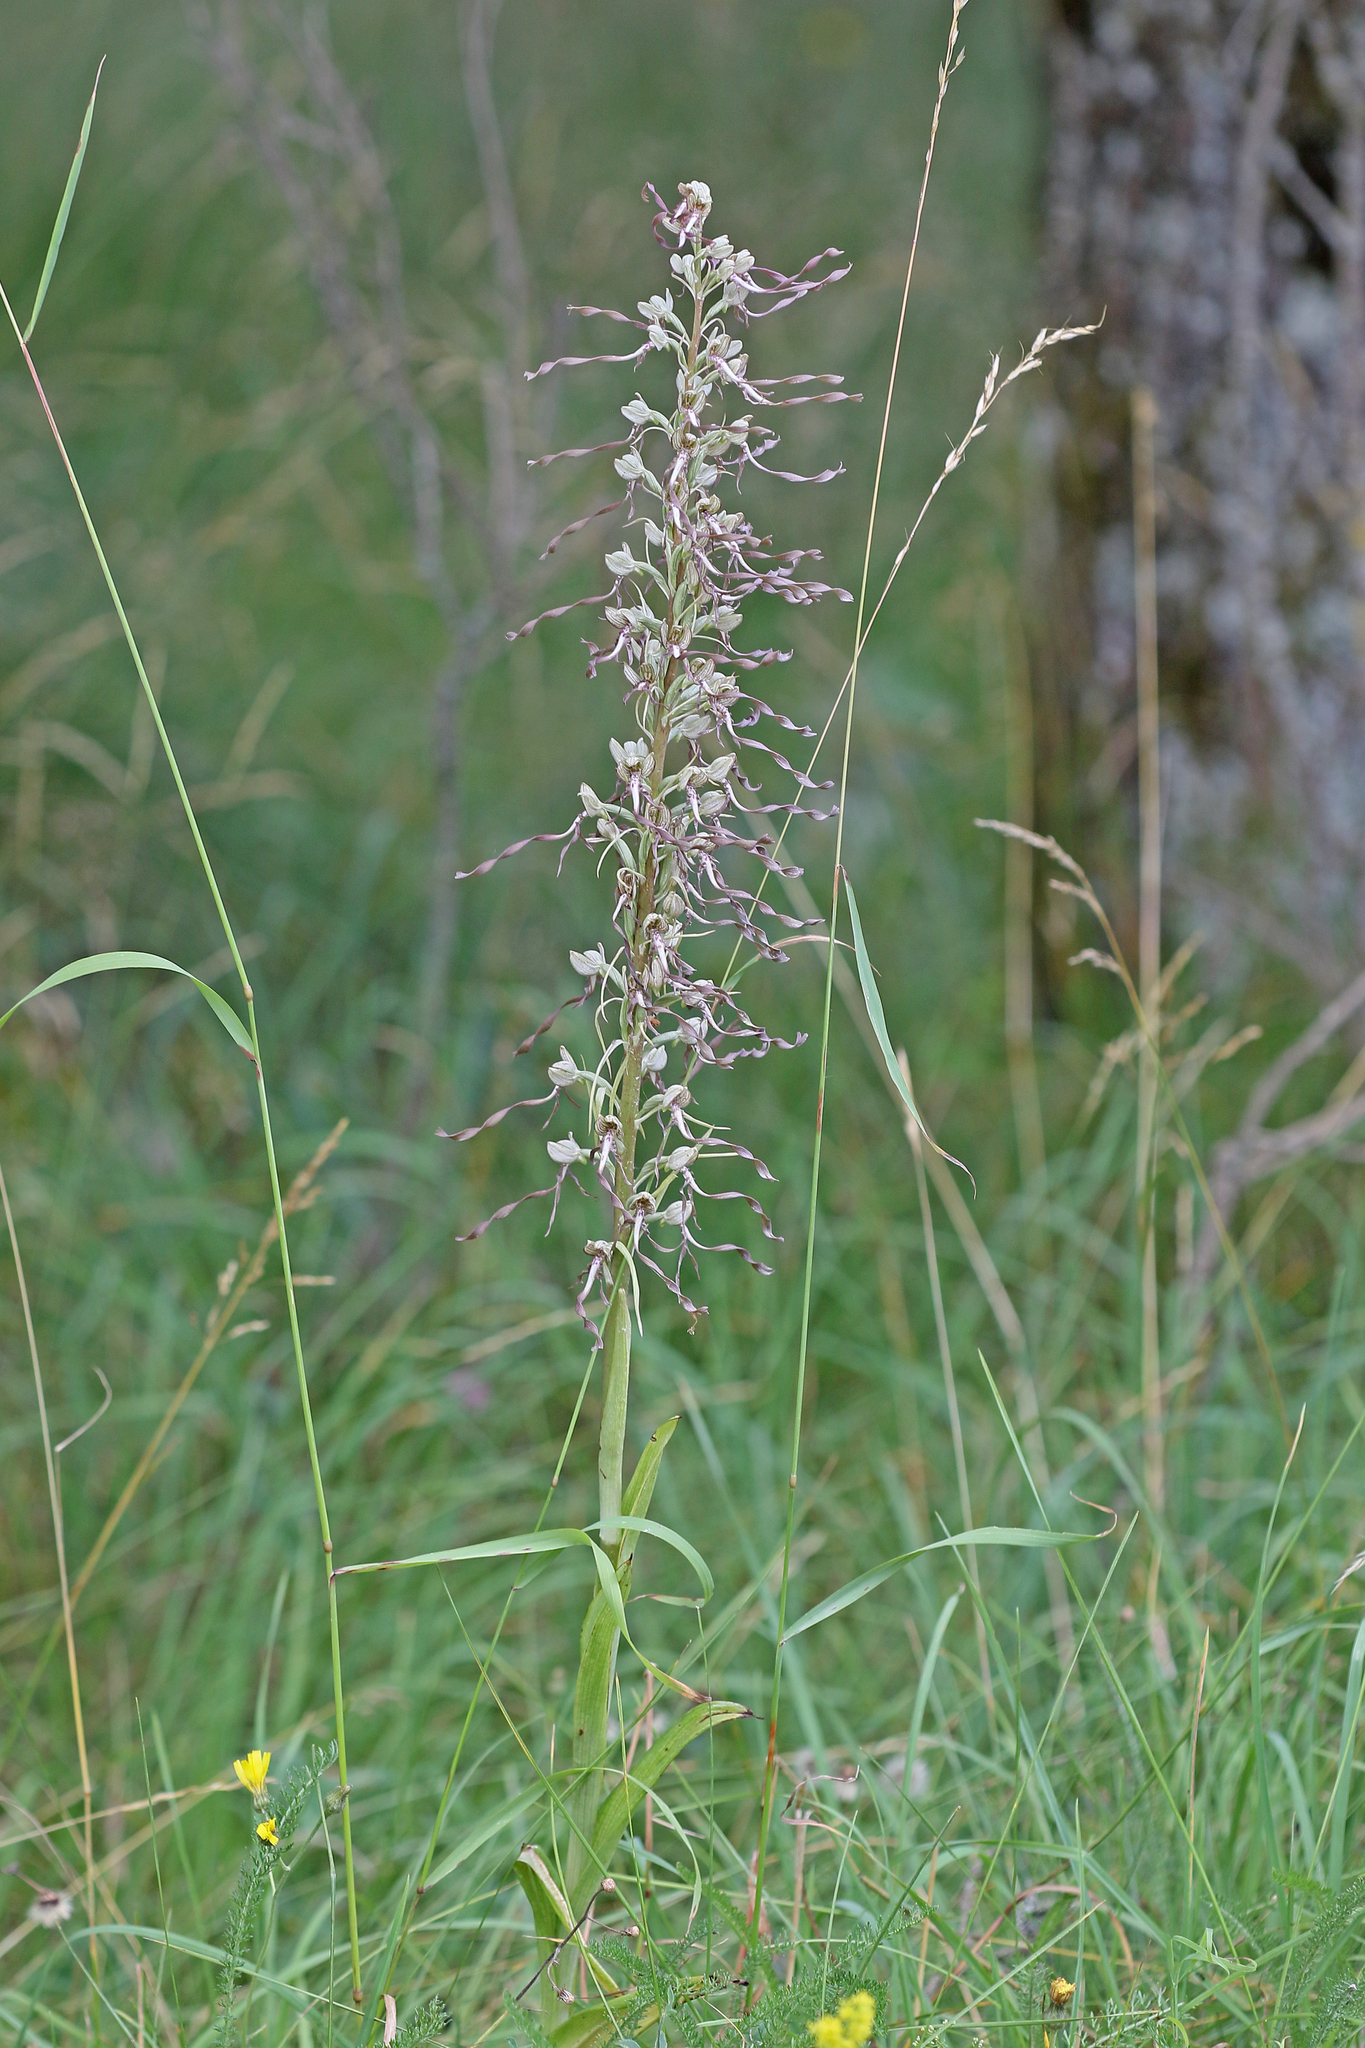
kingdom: Plantae
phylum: Tracheophyta
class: Liliopsida
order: Asparagales
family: Orchidaceae
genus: Himantoglossum
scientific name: Himantoglossum hircinum
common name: Lizard orchid
